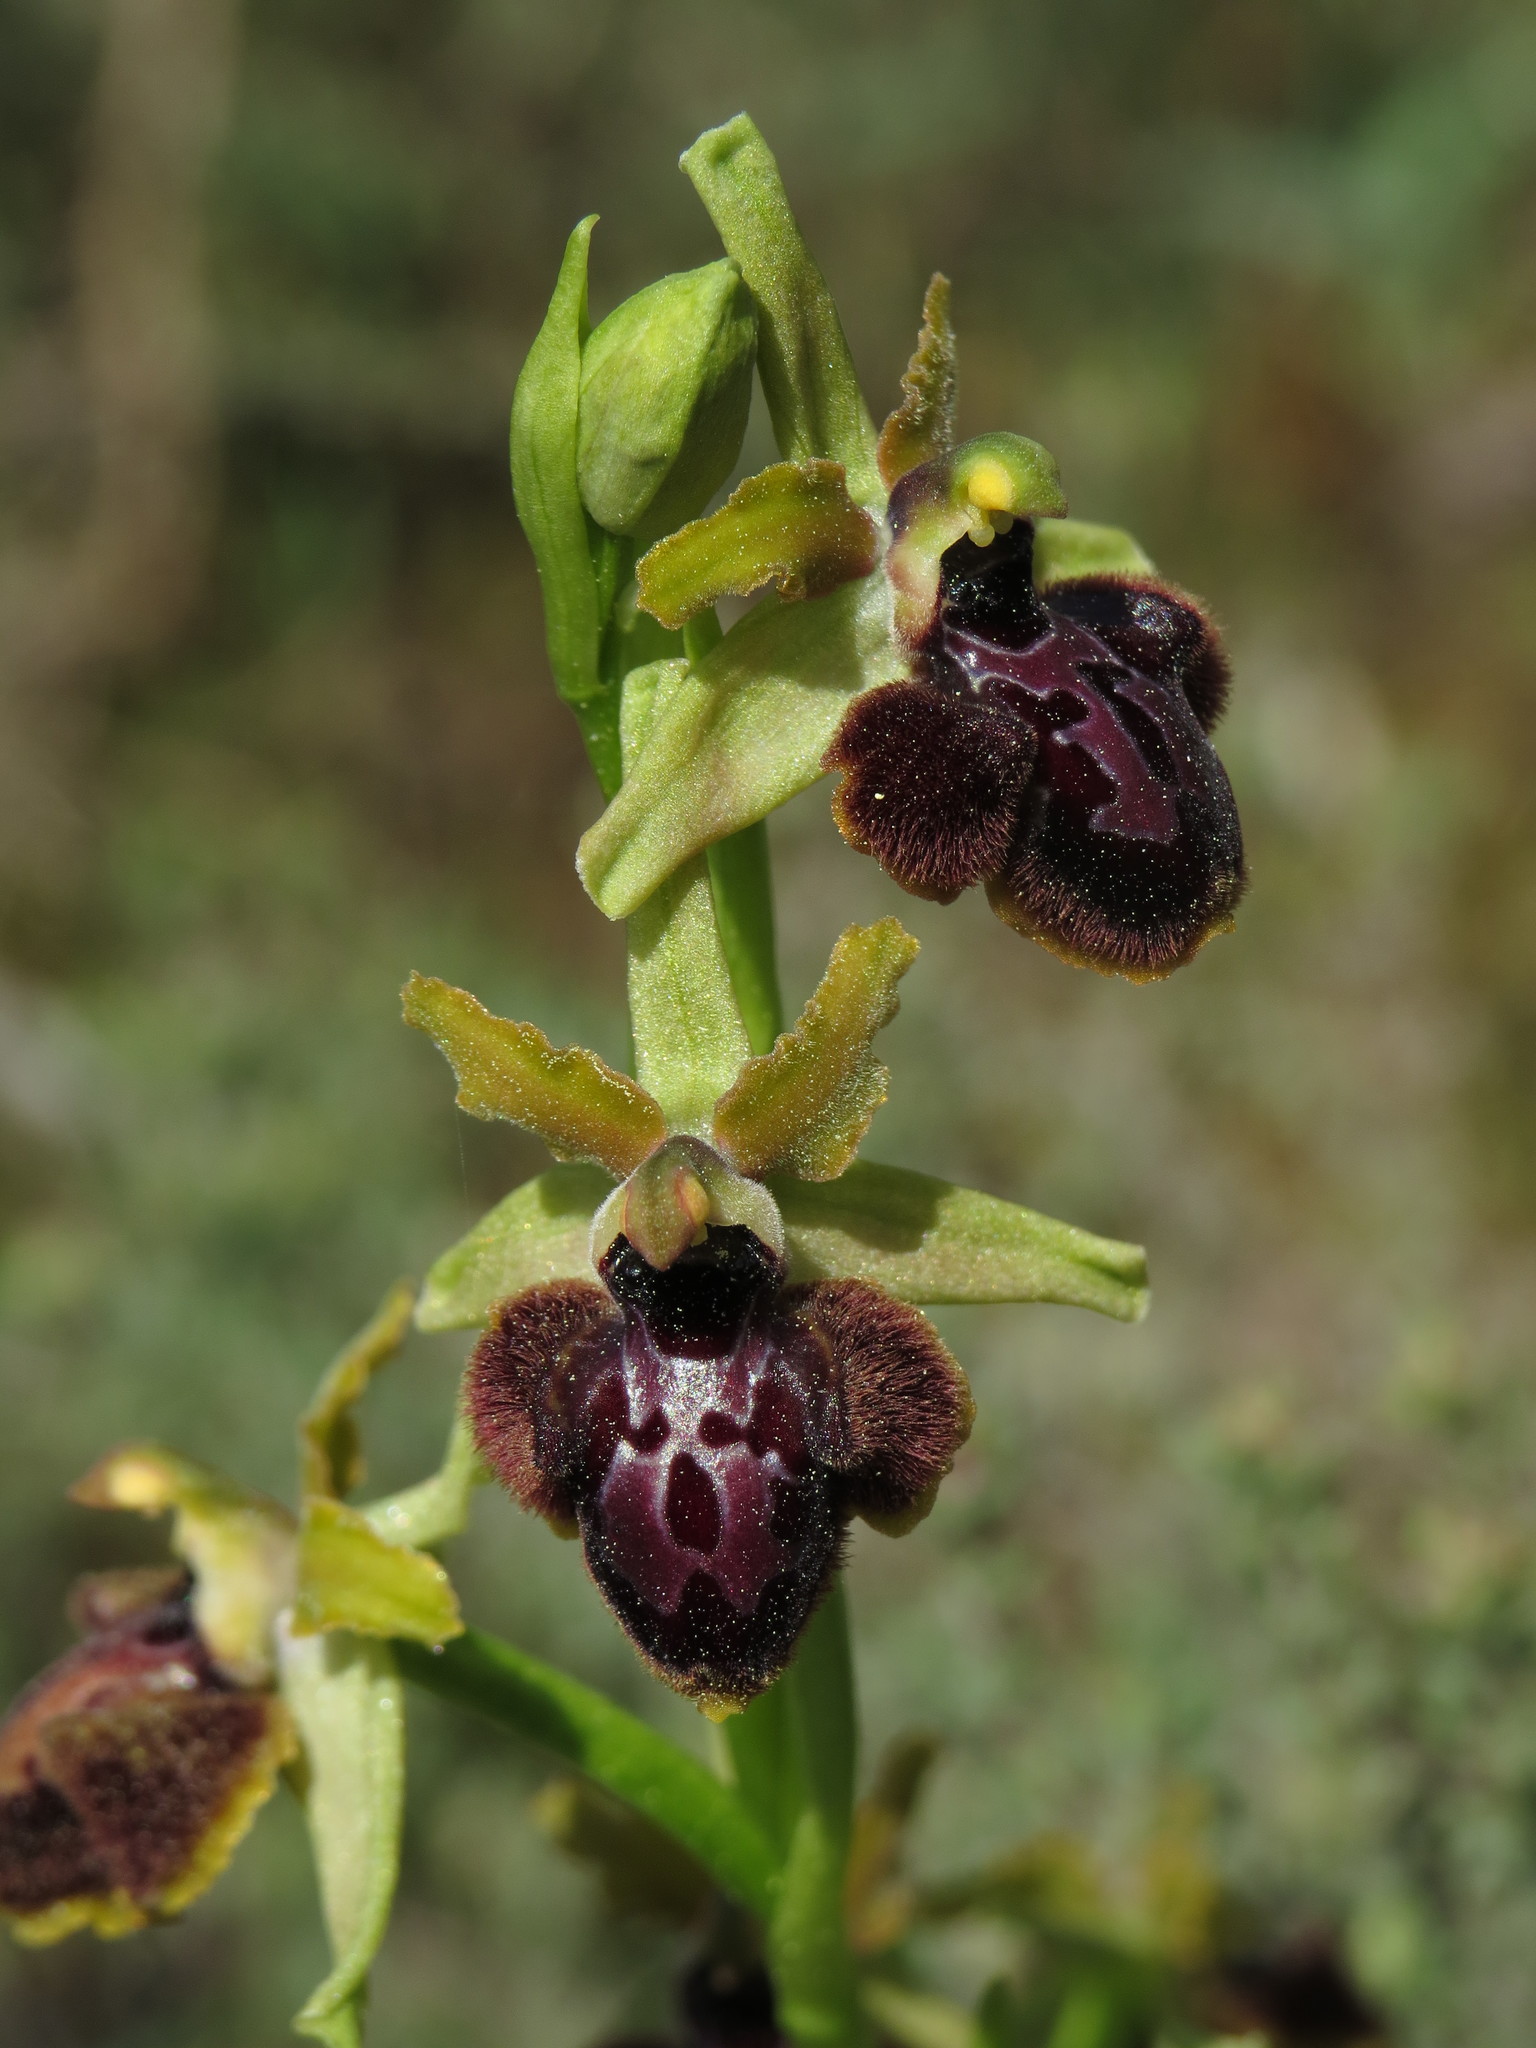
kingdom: Plantae
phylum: Tracheophyta
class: Liliopsida
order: Asparagales
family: Orchidaceae
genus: Ophrys
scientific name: Ophrys sphegodes
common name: Early spider-orchid
